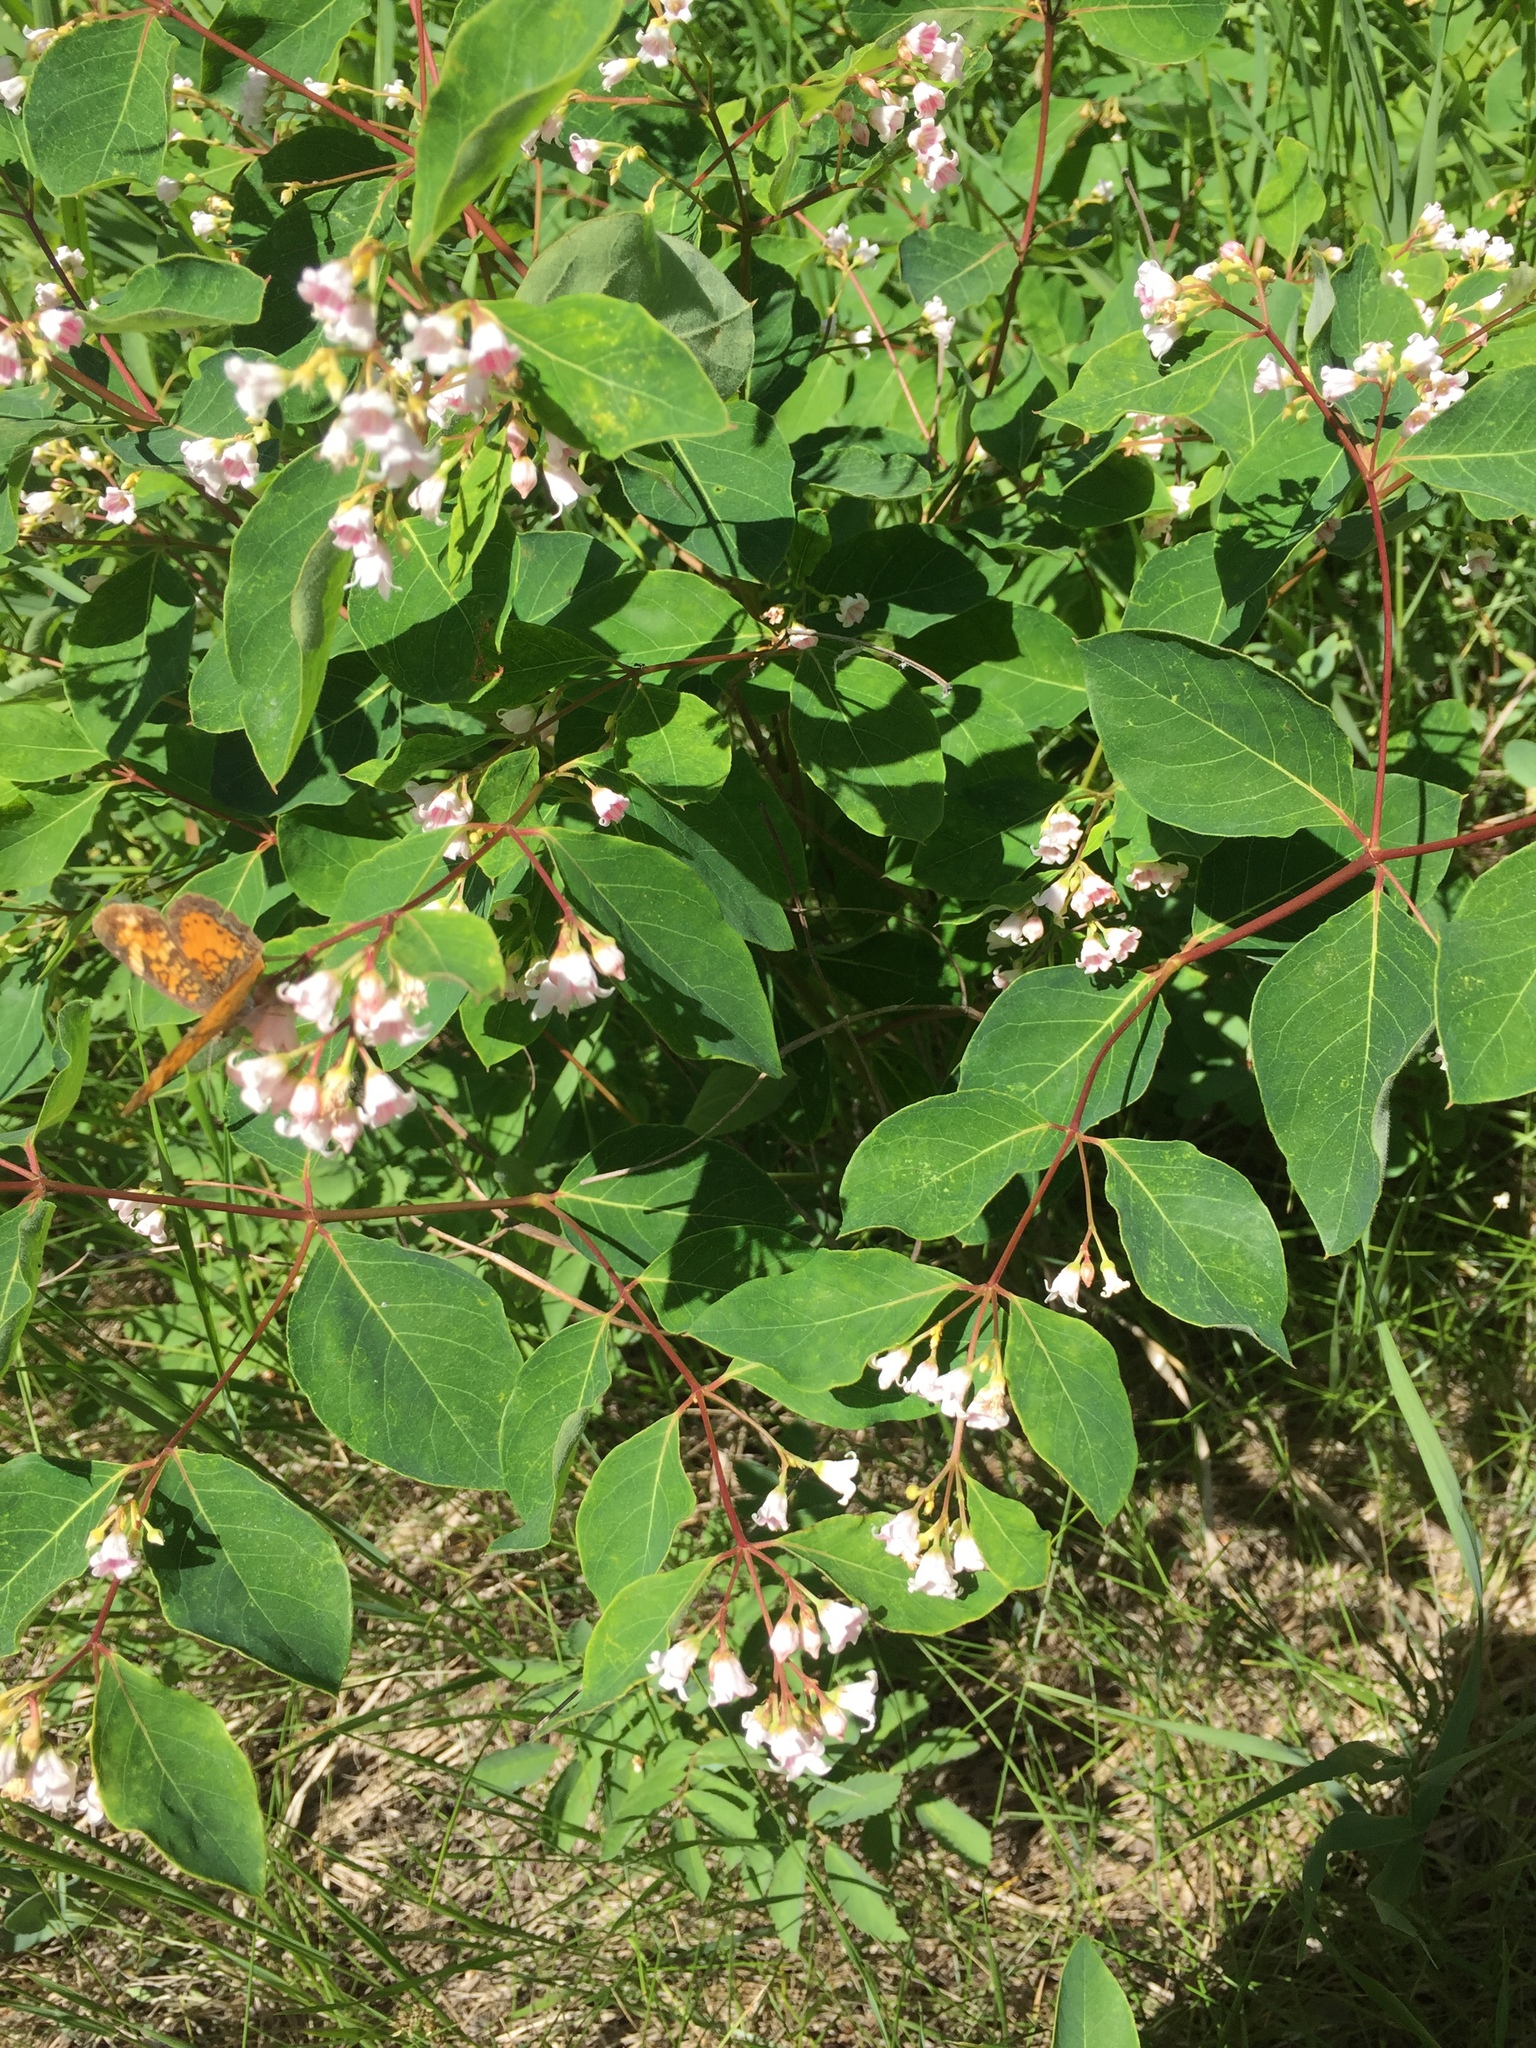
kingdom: Plantae
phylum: Tracheophyta
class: Magnoliopsida
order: Gentianales
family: Apocynaceae
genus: Apocynum
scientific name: Apocynum androsaemifolium
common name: Spreading dogbane
